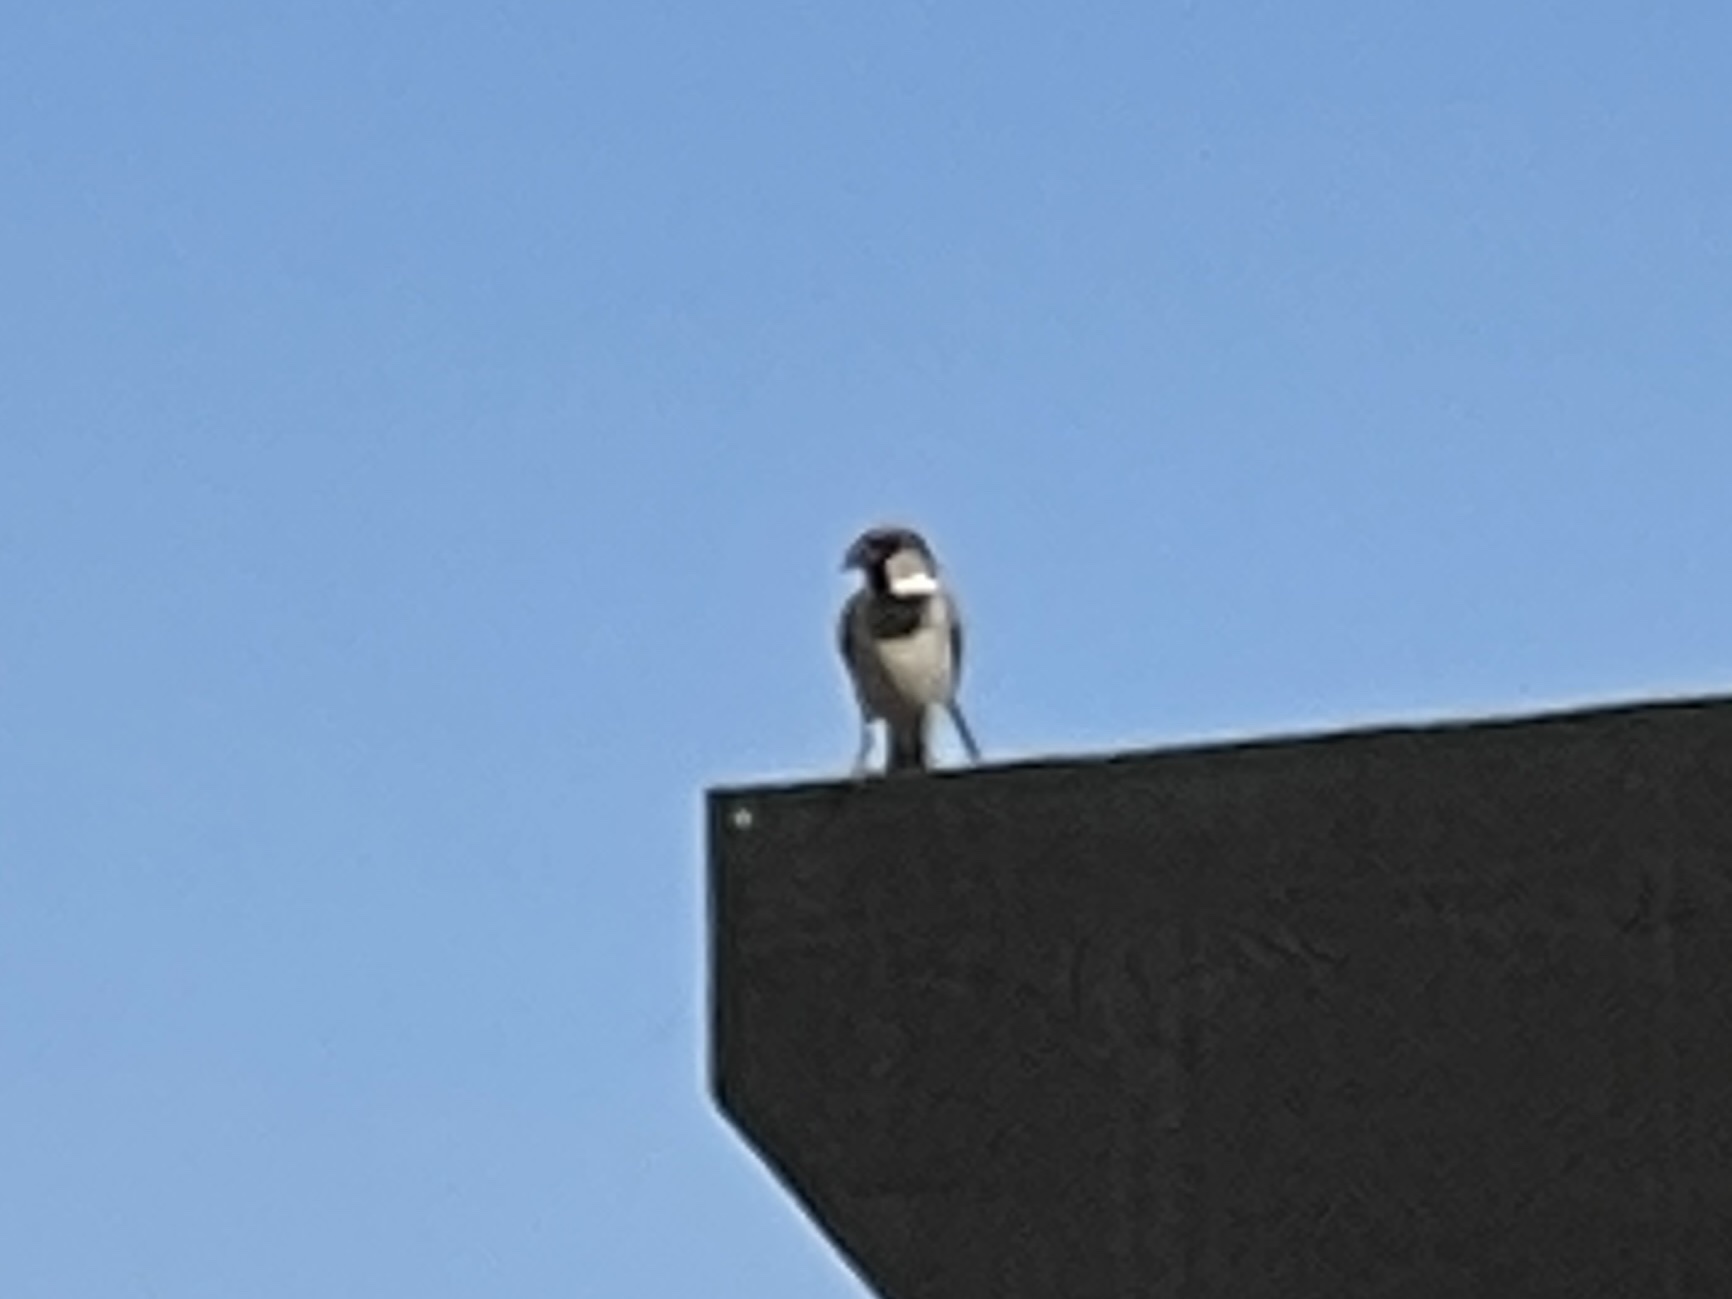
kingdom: Animalia
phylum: Chordata
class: Aves
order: Passeriformes
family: Passeridae
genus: Passer
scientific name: Passer domesticus
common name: House sparrow
